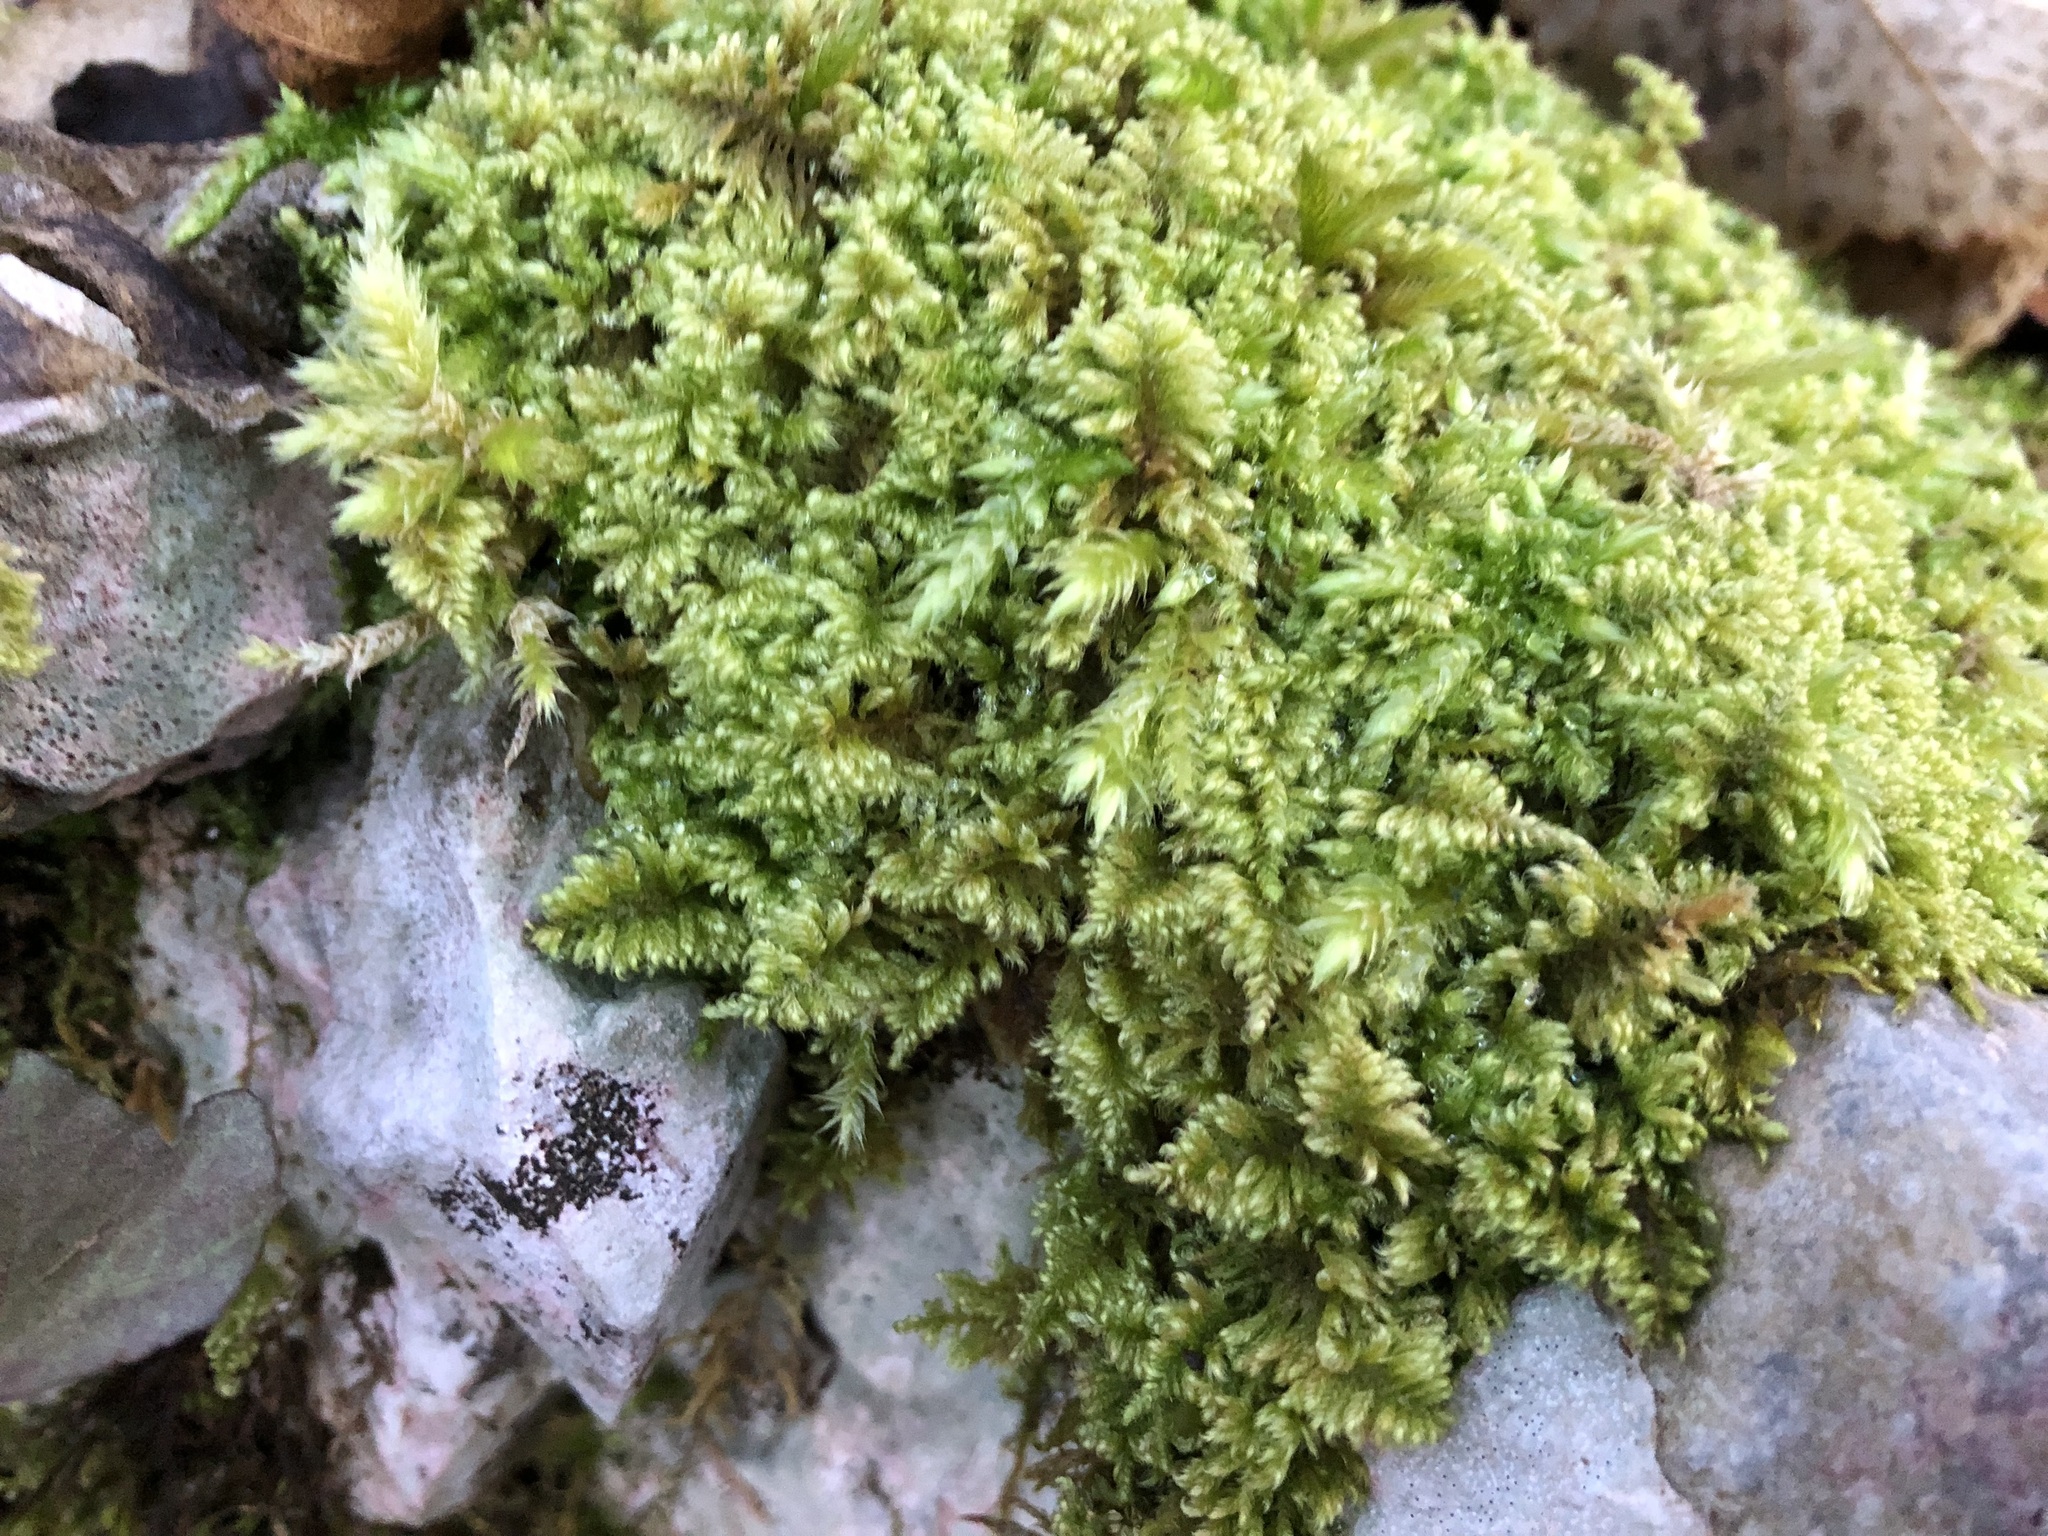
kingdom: Plantae
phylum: Bryophyta
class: Bryopsida
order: Hypnales
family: Myuriaceae
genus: Ctenidium
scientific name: Ctenidium molluscum
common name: Chalk comb-moss
